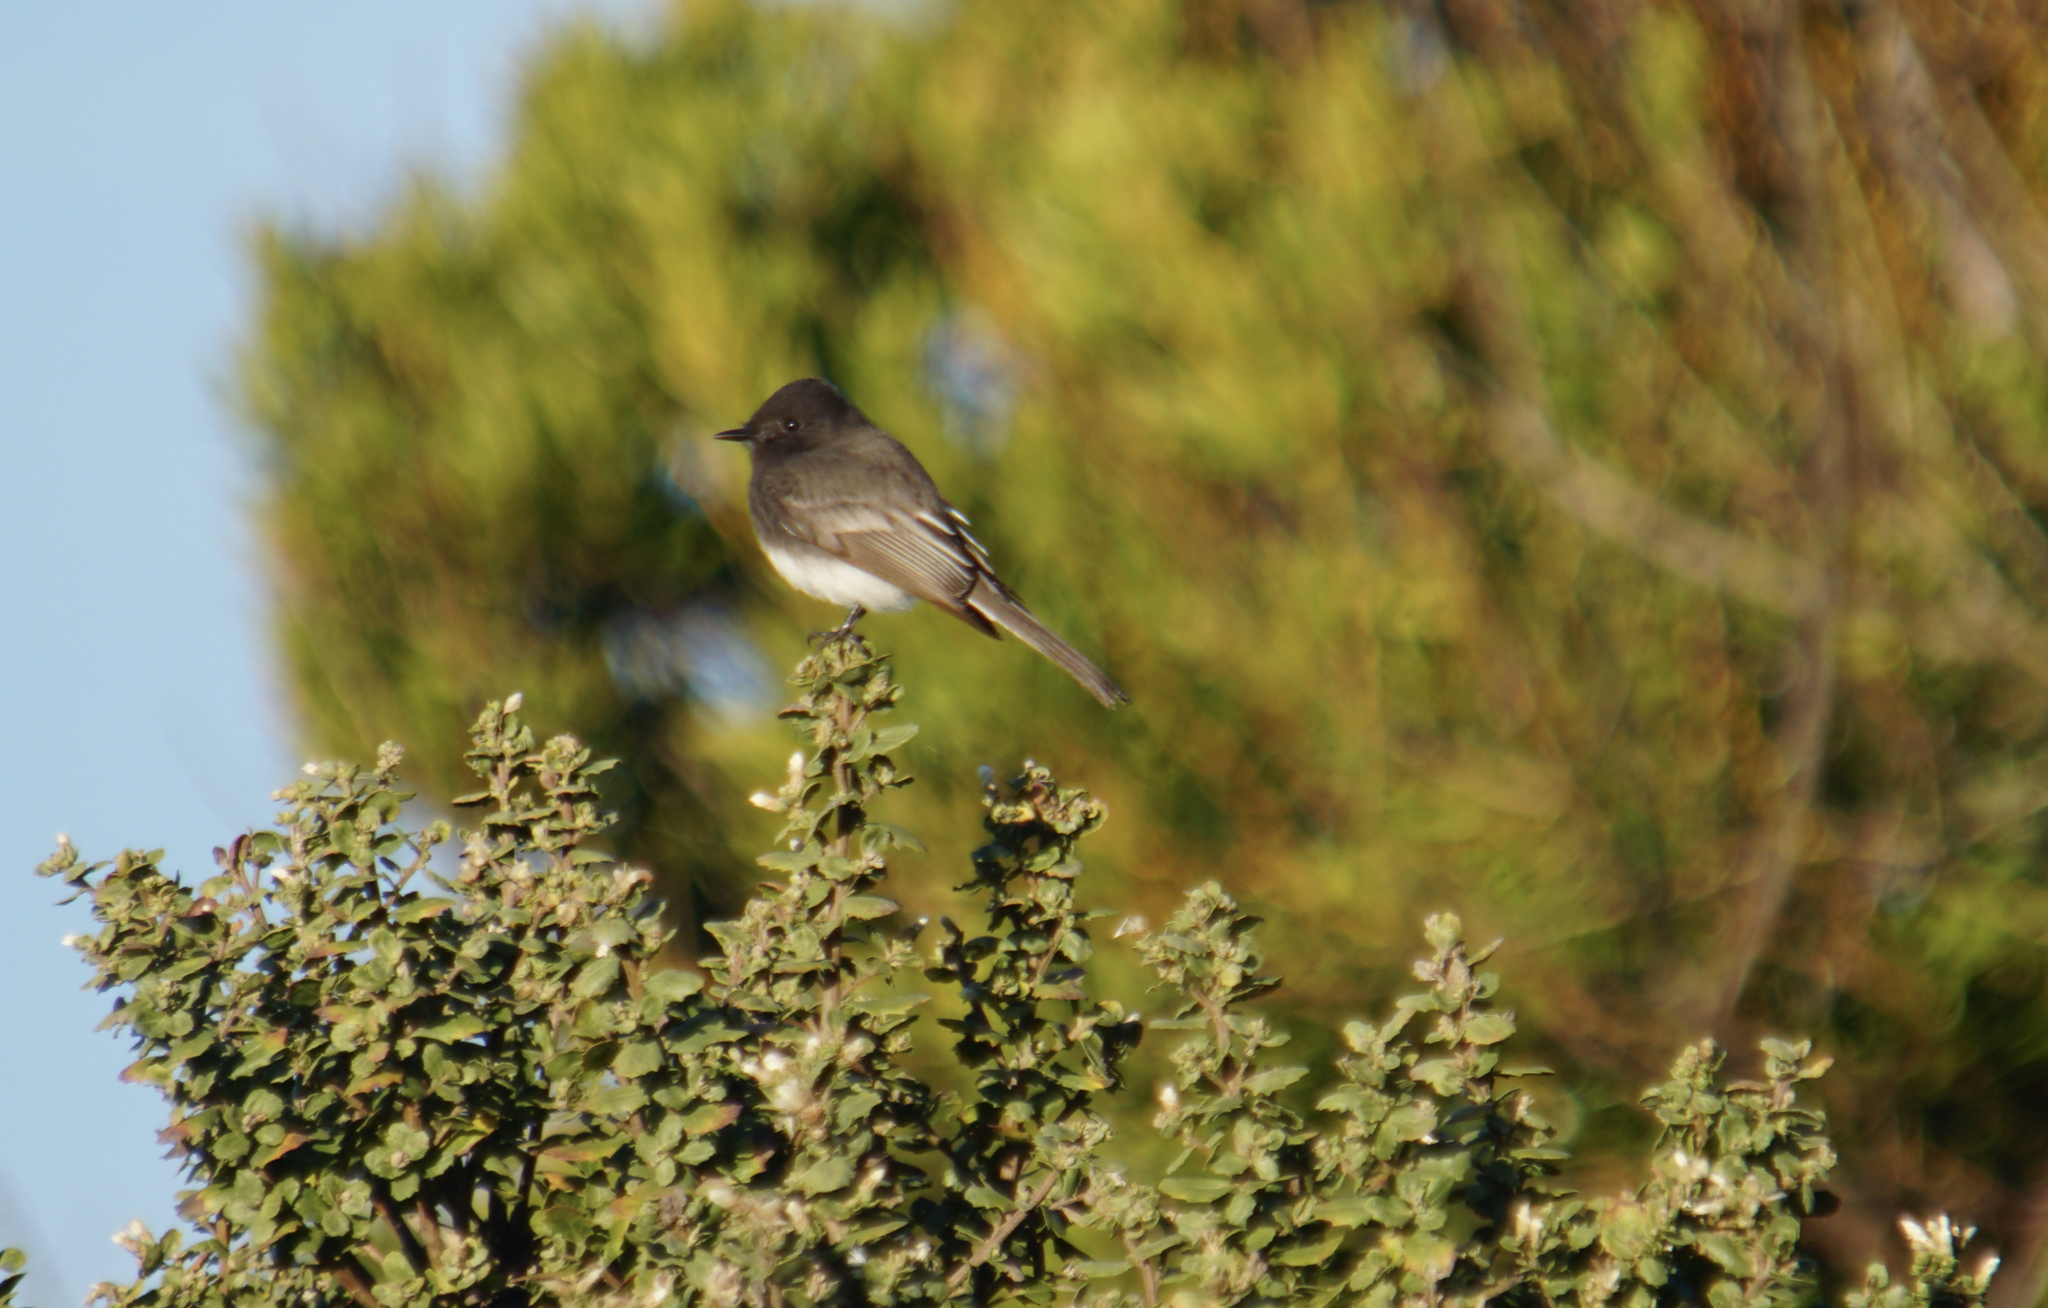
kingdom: Animalia
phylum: Chordata
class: Aves
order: Passeriformes
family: Tyrannidae
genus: Sayornis
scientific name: Sayornis nigricans
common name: Black phoebe
